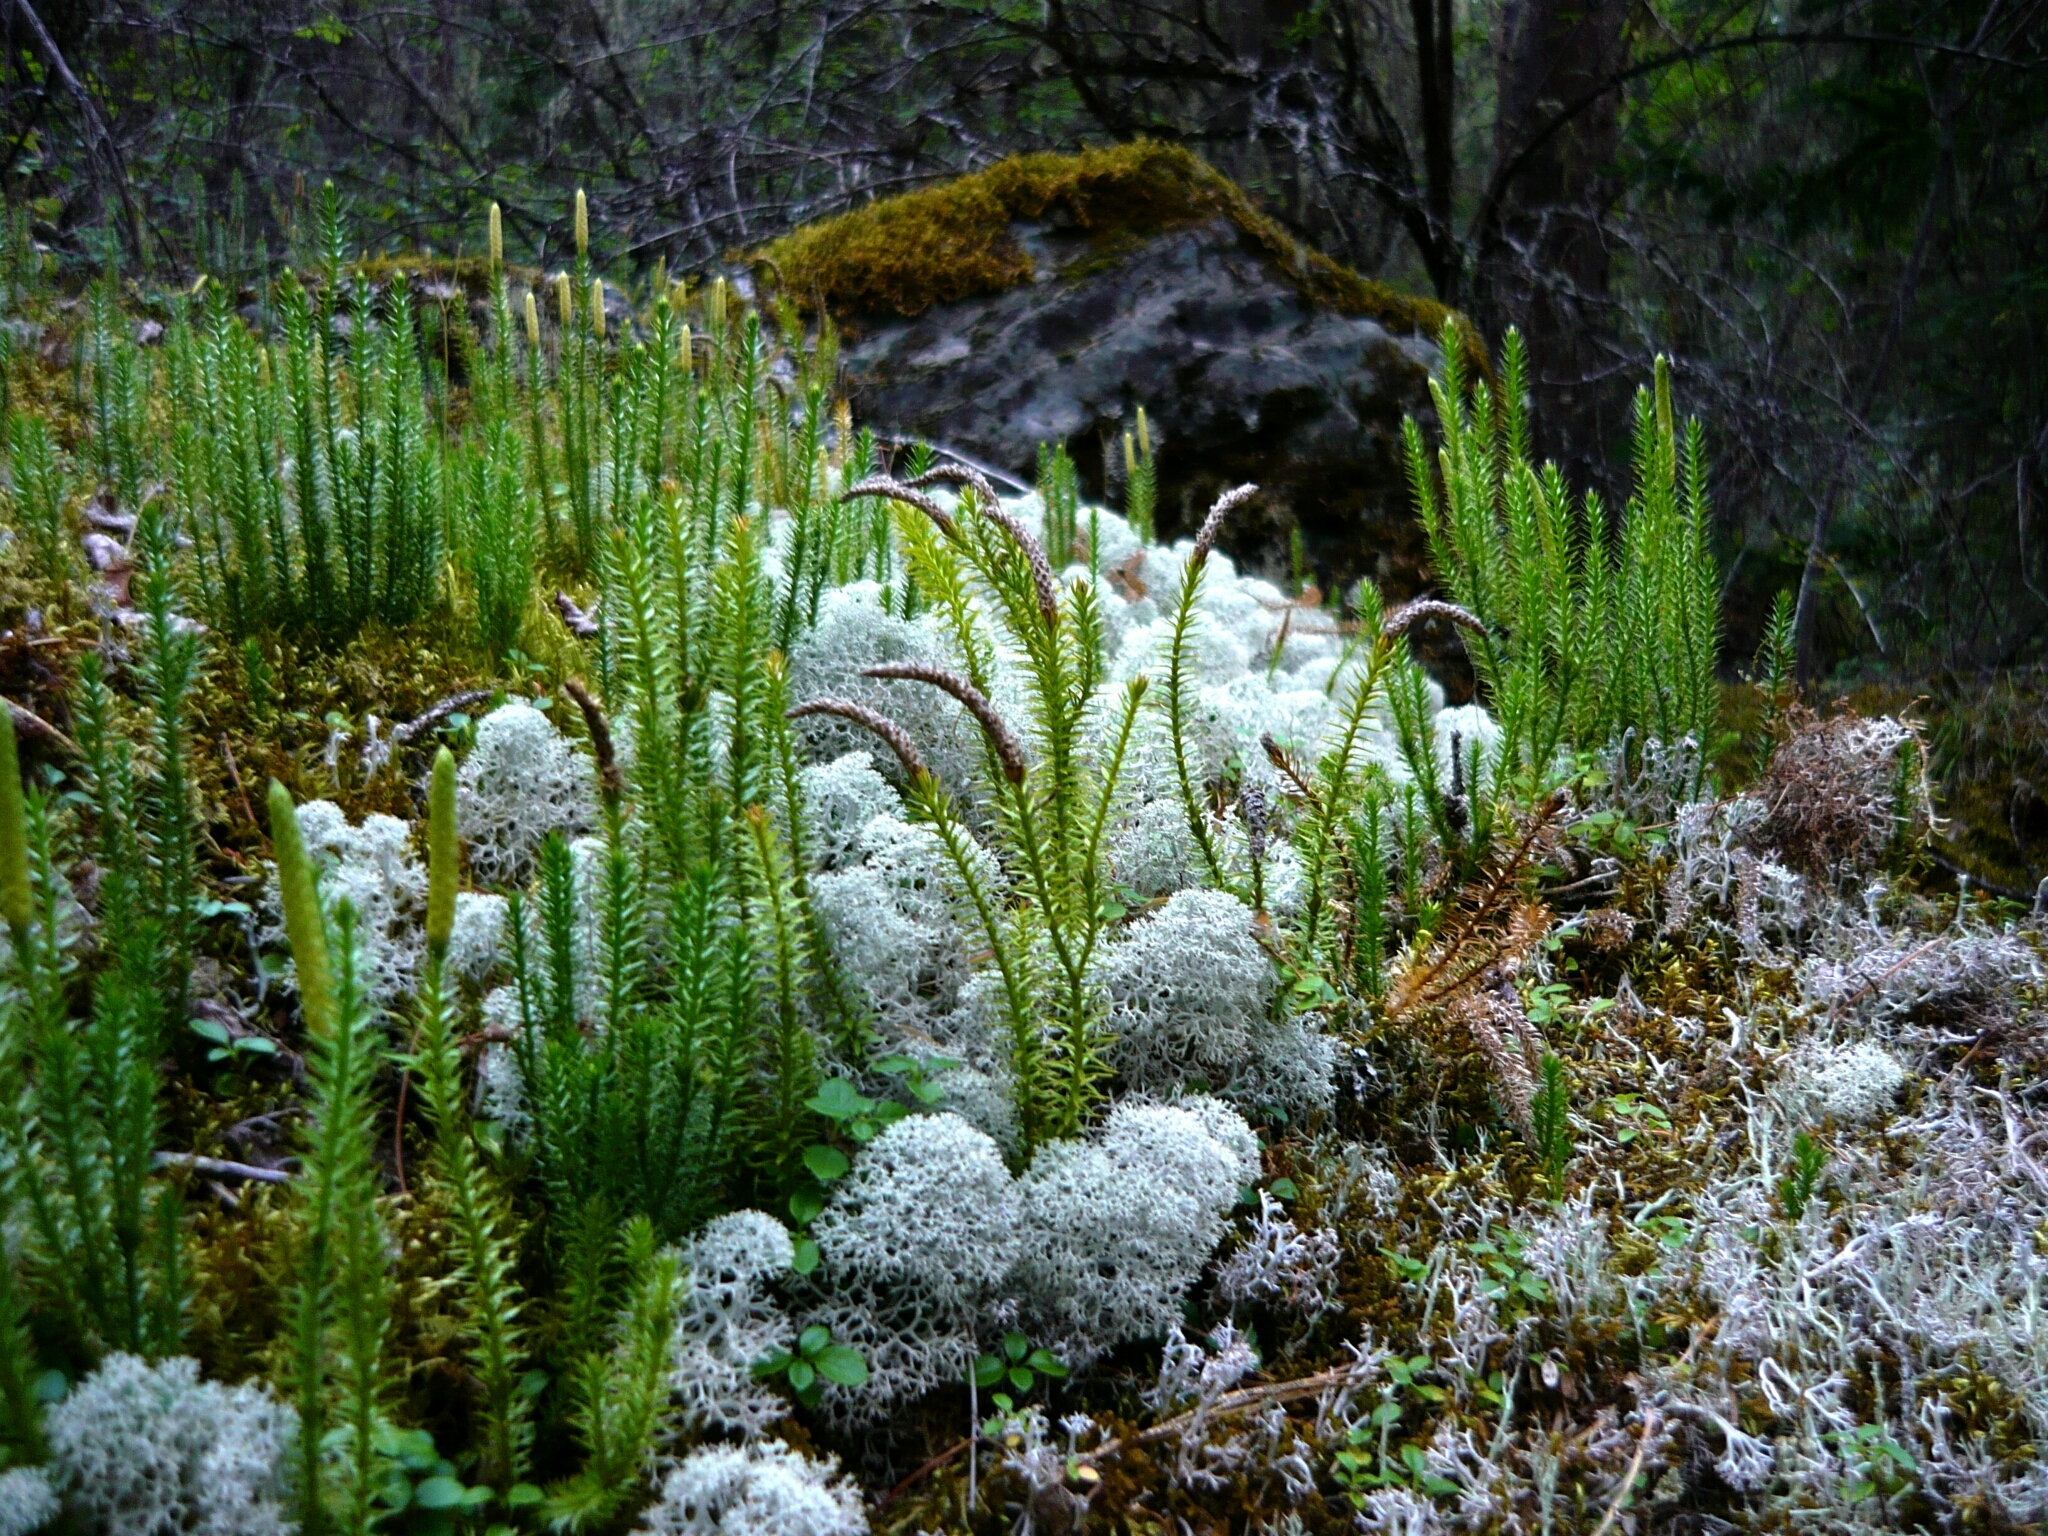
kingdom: Plantae
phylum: Tracheophyta
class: Lycopodiopsida
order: Lycopodiales
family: Lycopodiaceae
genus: Spinulum
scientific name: Spinulum annotinum
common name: Interrupted club-moss
